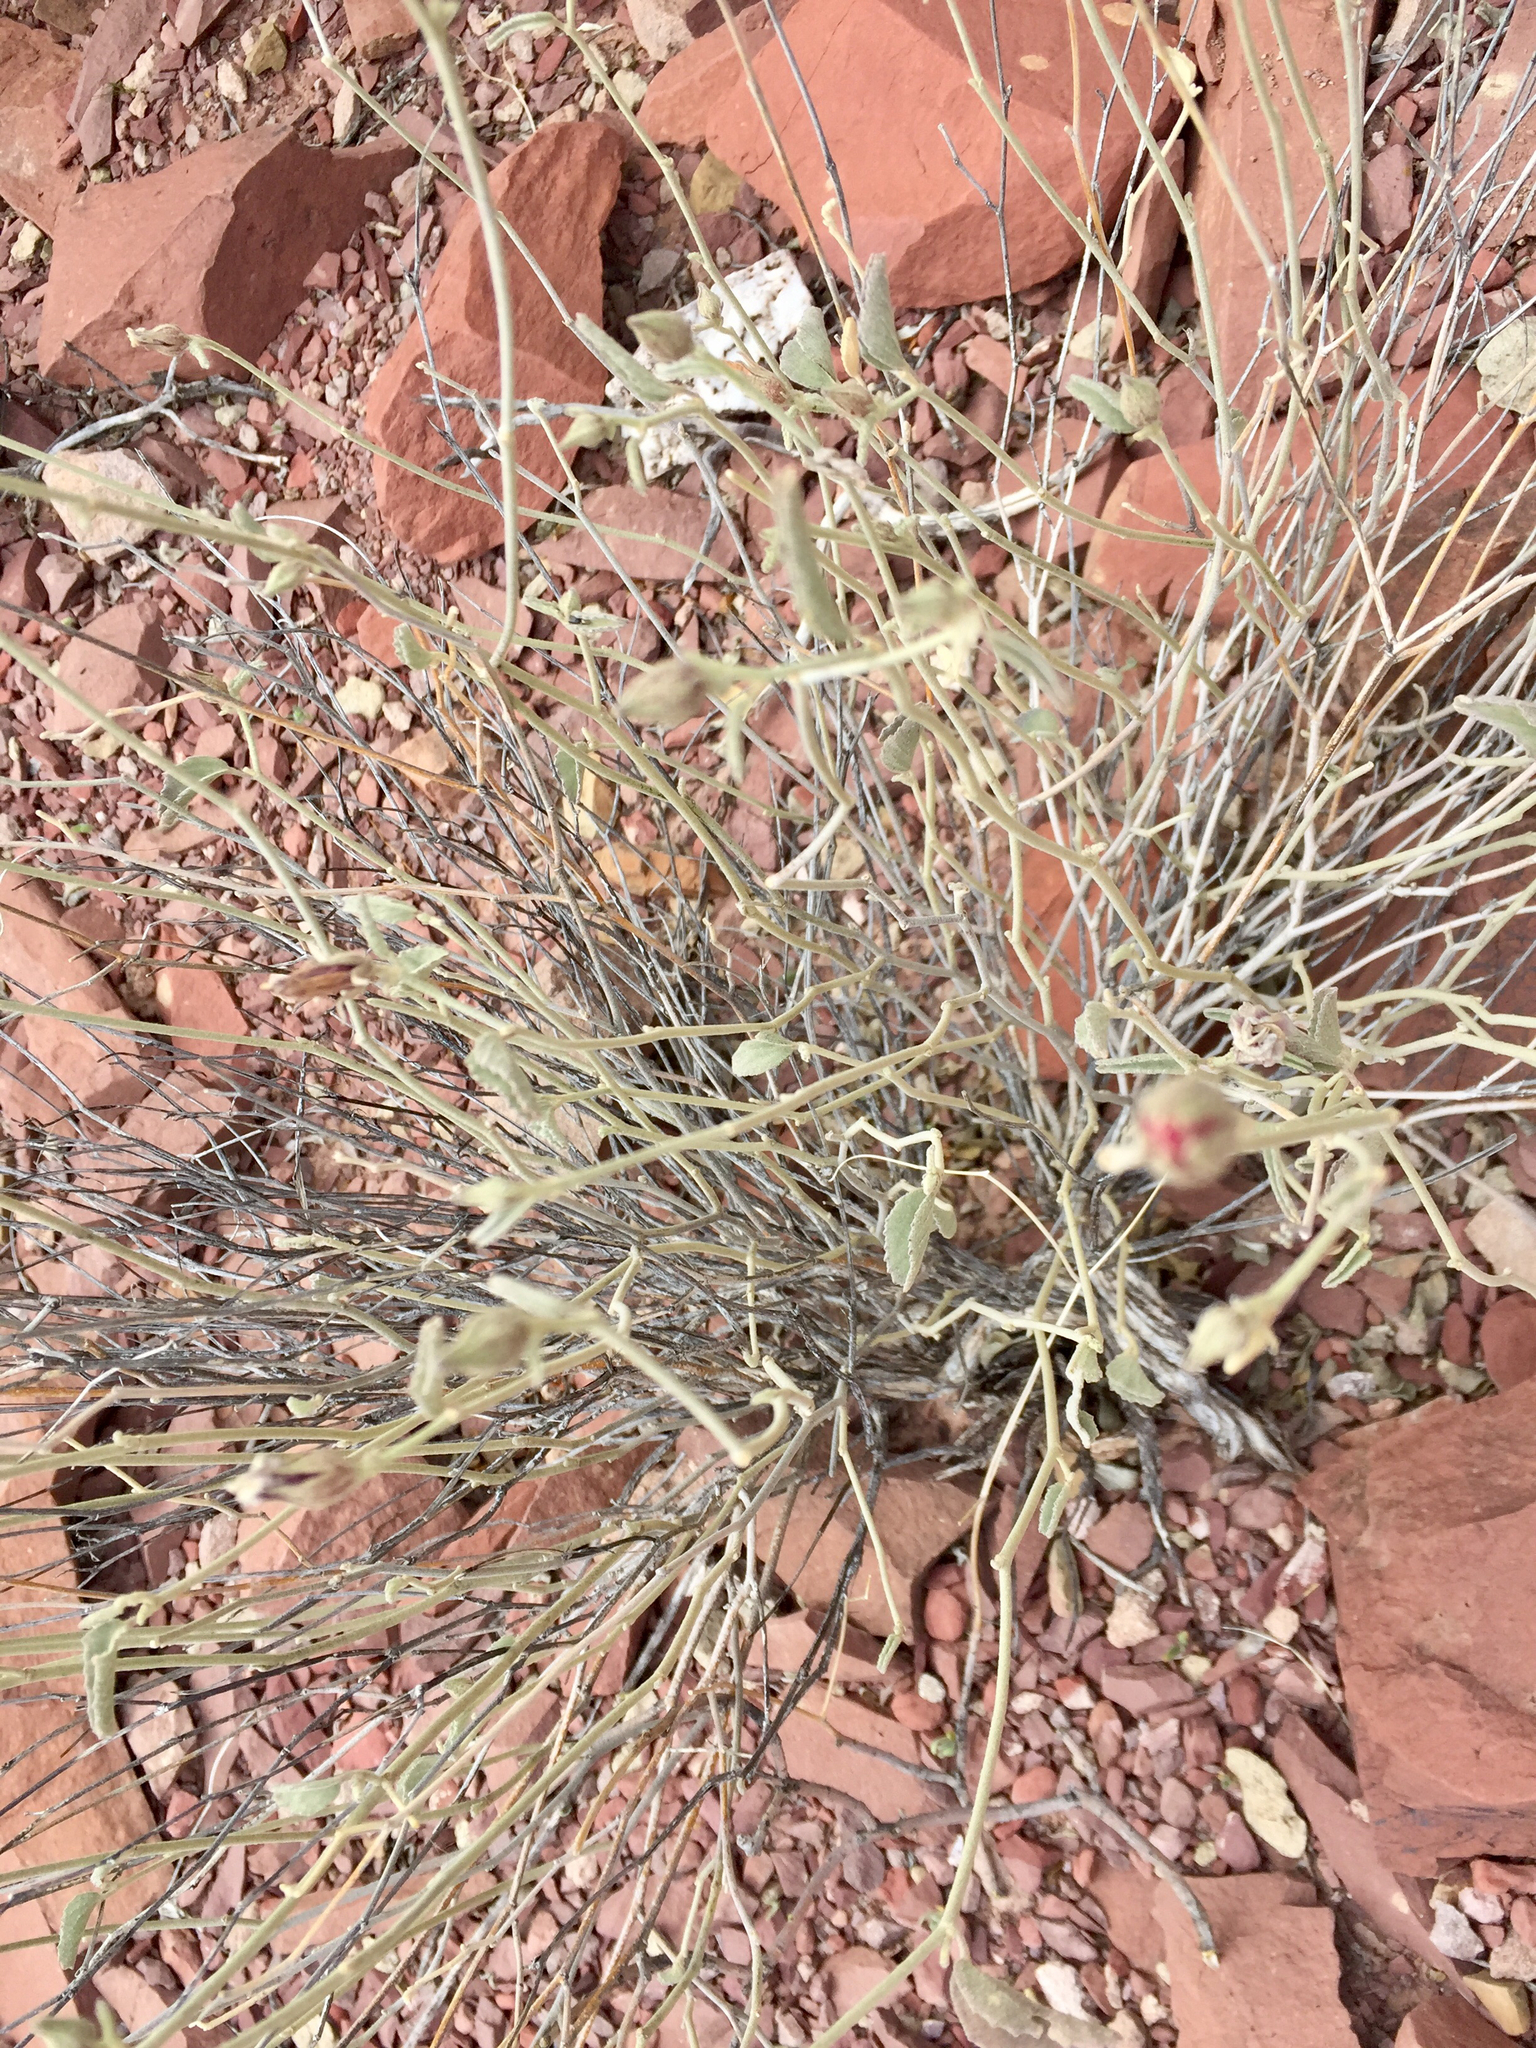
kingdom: Plantae
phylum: Tracheophyta
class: Magnoliopsida
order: Malvales
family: Malvaceae
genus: Hibiscus
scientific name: Hibiscus denudatus
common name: Paleface
